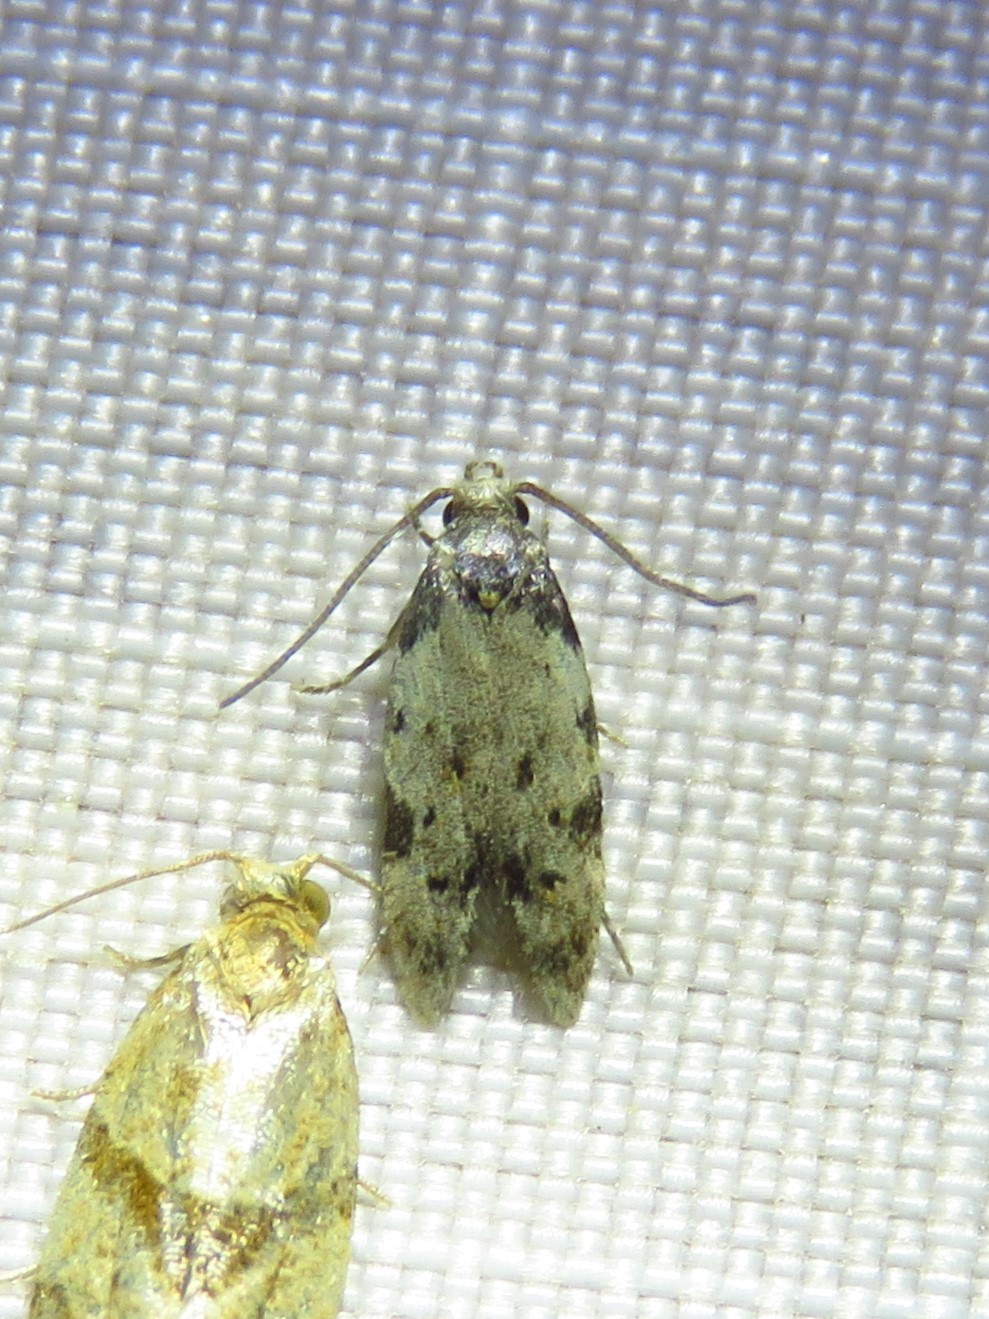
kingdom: Animalia
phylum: Arthropoda
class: Insecta
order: Lepidoptera
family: Autostichidae
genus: Taygete
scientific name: Taygete attributella
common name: Triangle-marked twirler moth
